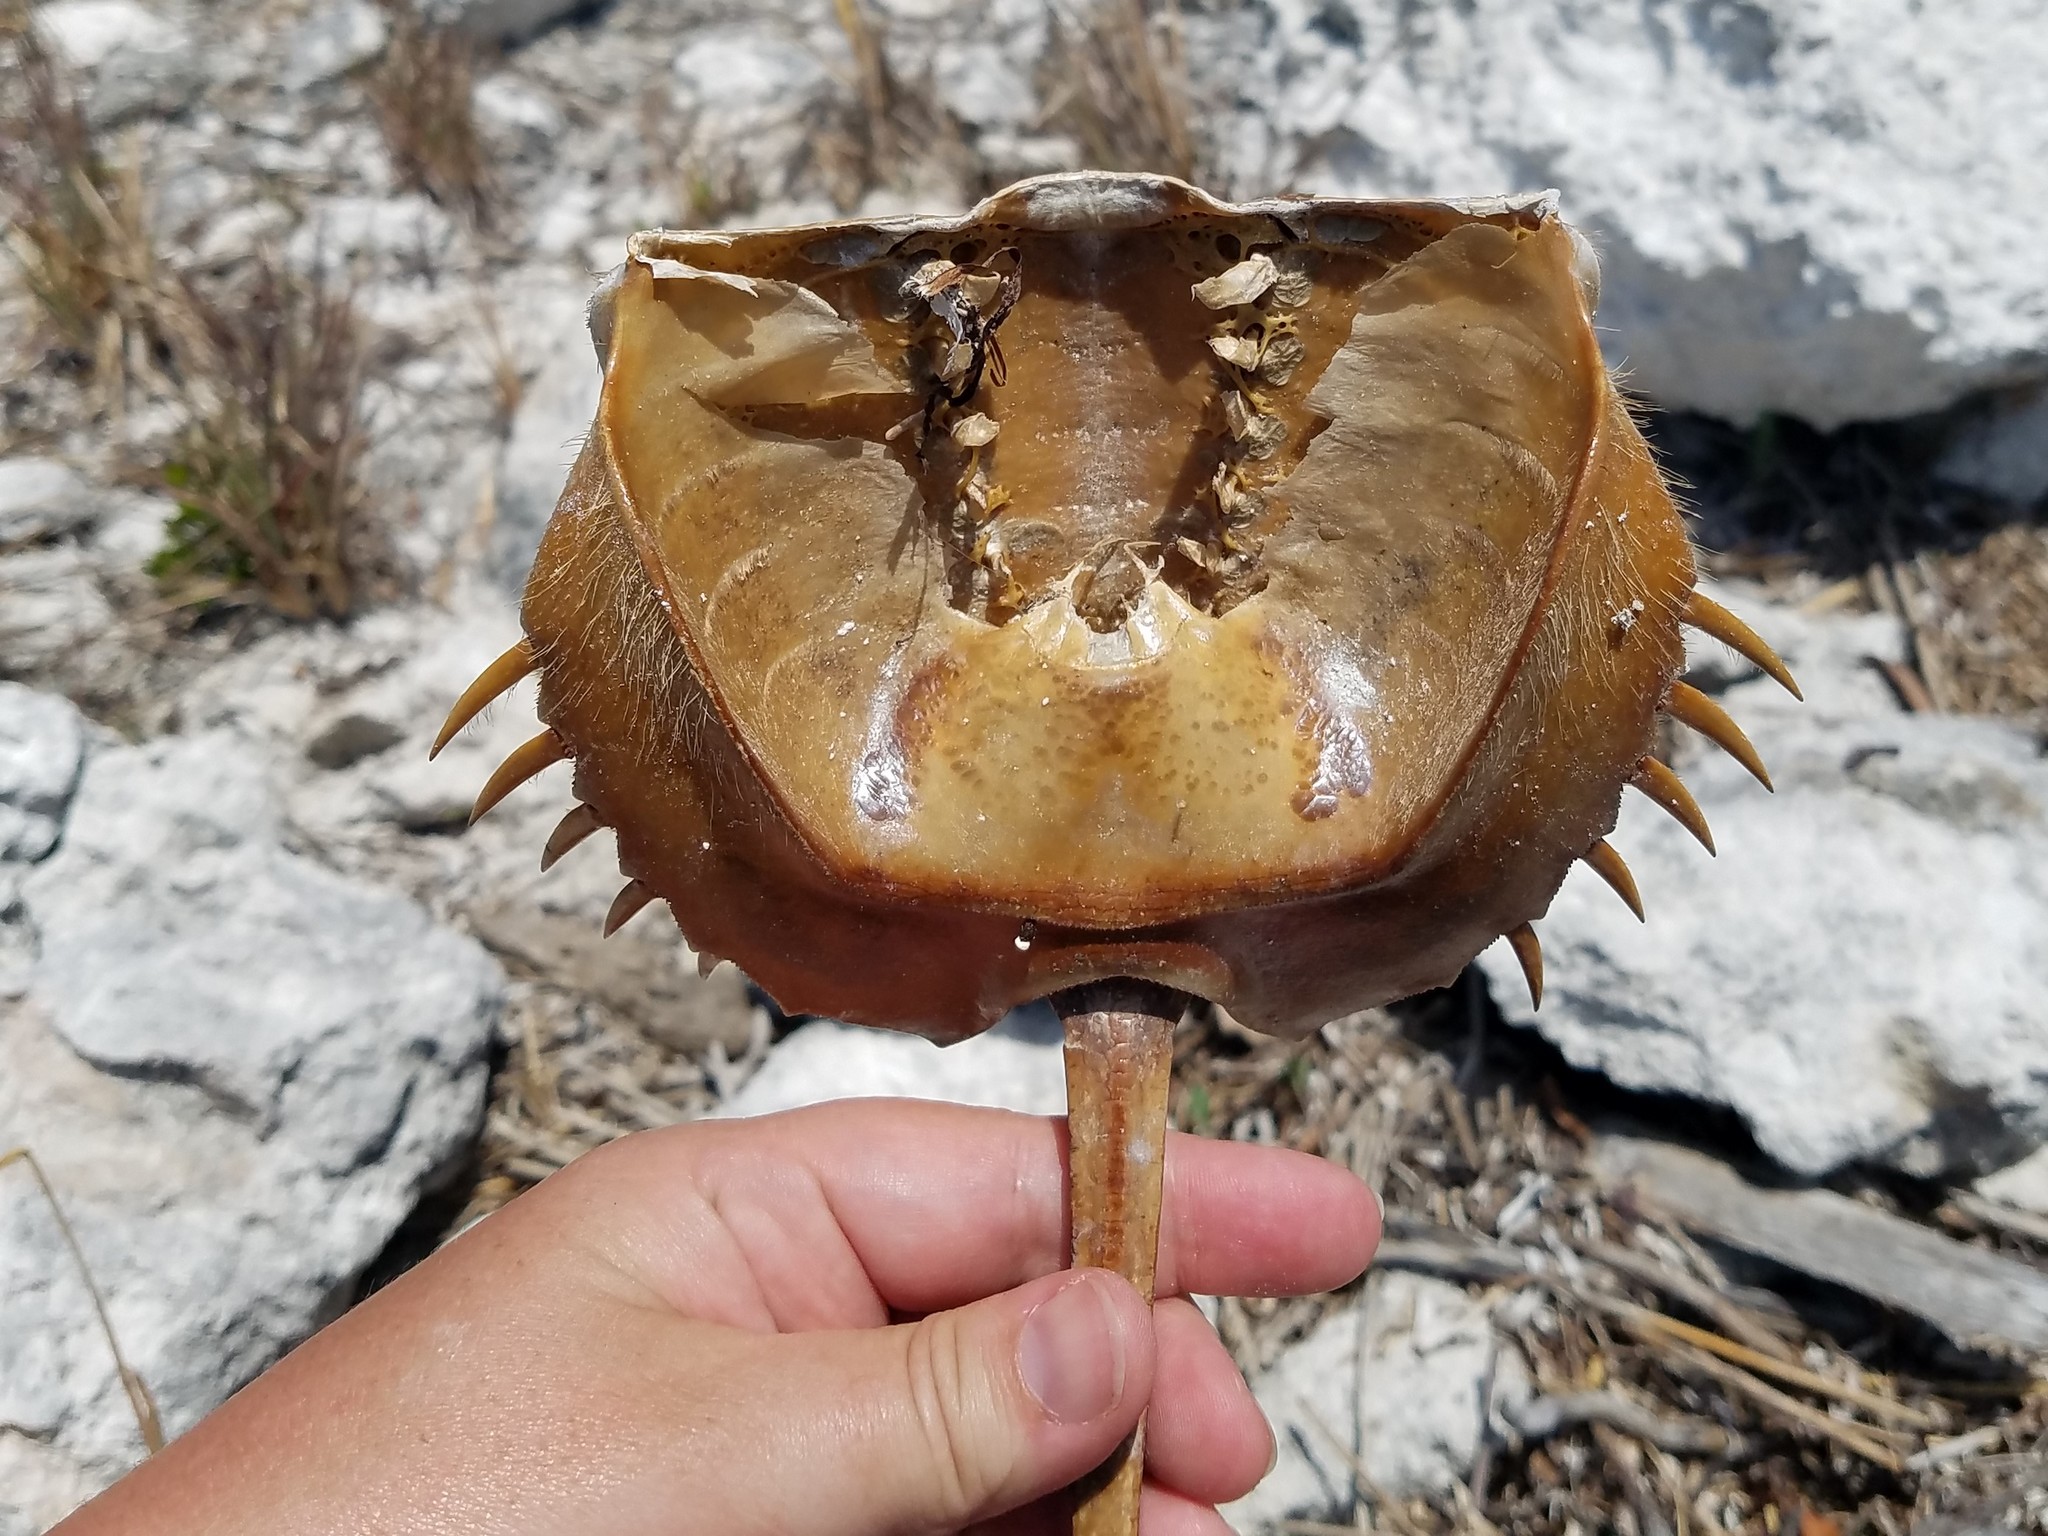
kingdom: Animalia
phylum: Arthropoda
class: Merostomata
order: Xiphosurida
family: Limulidae
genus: Limulus
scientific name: Limulus polyphemus
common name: Horseshoe crab
